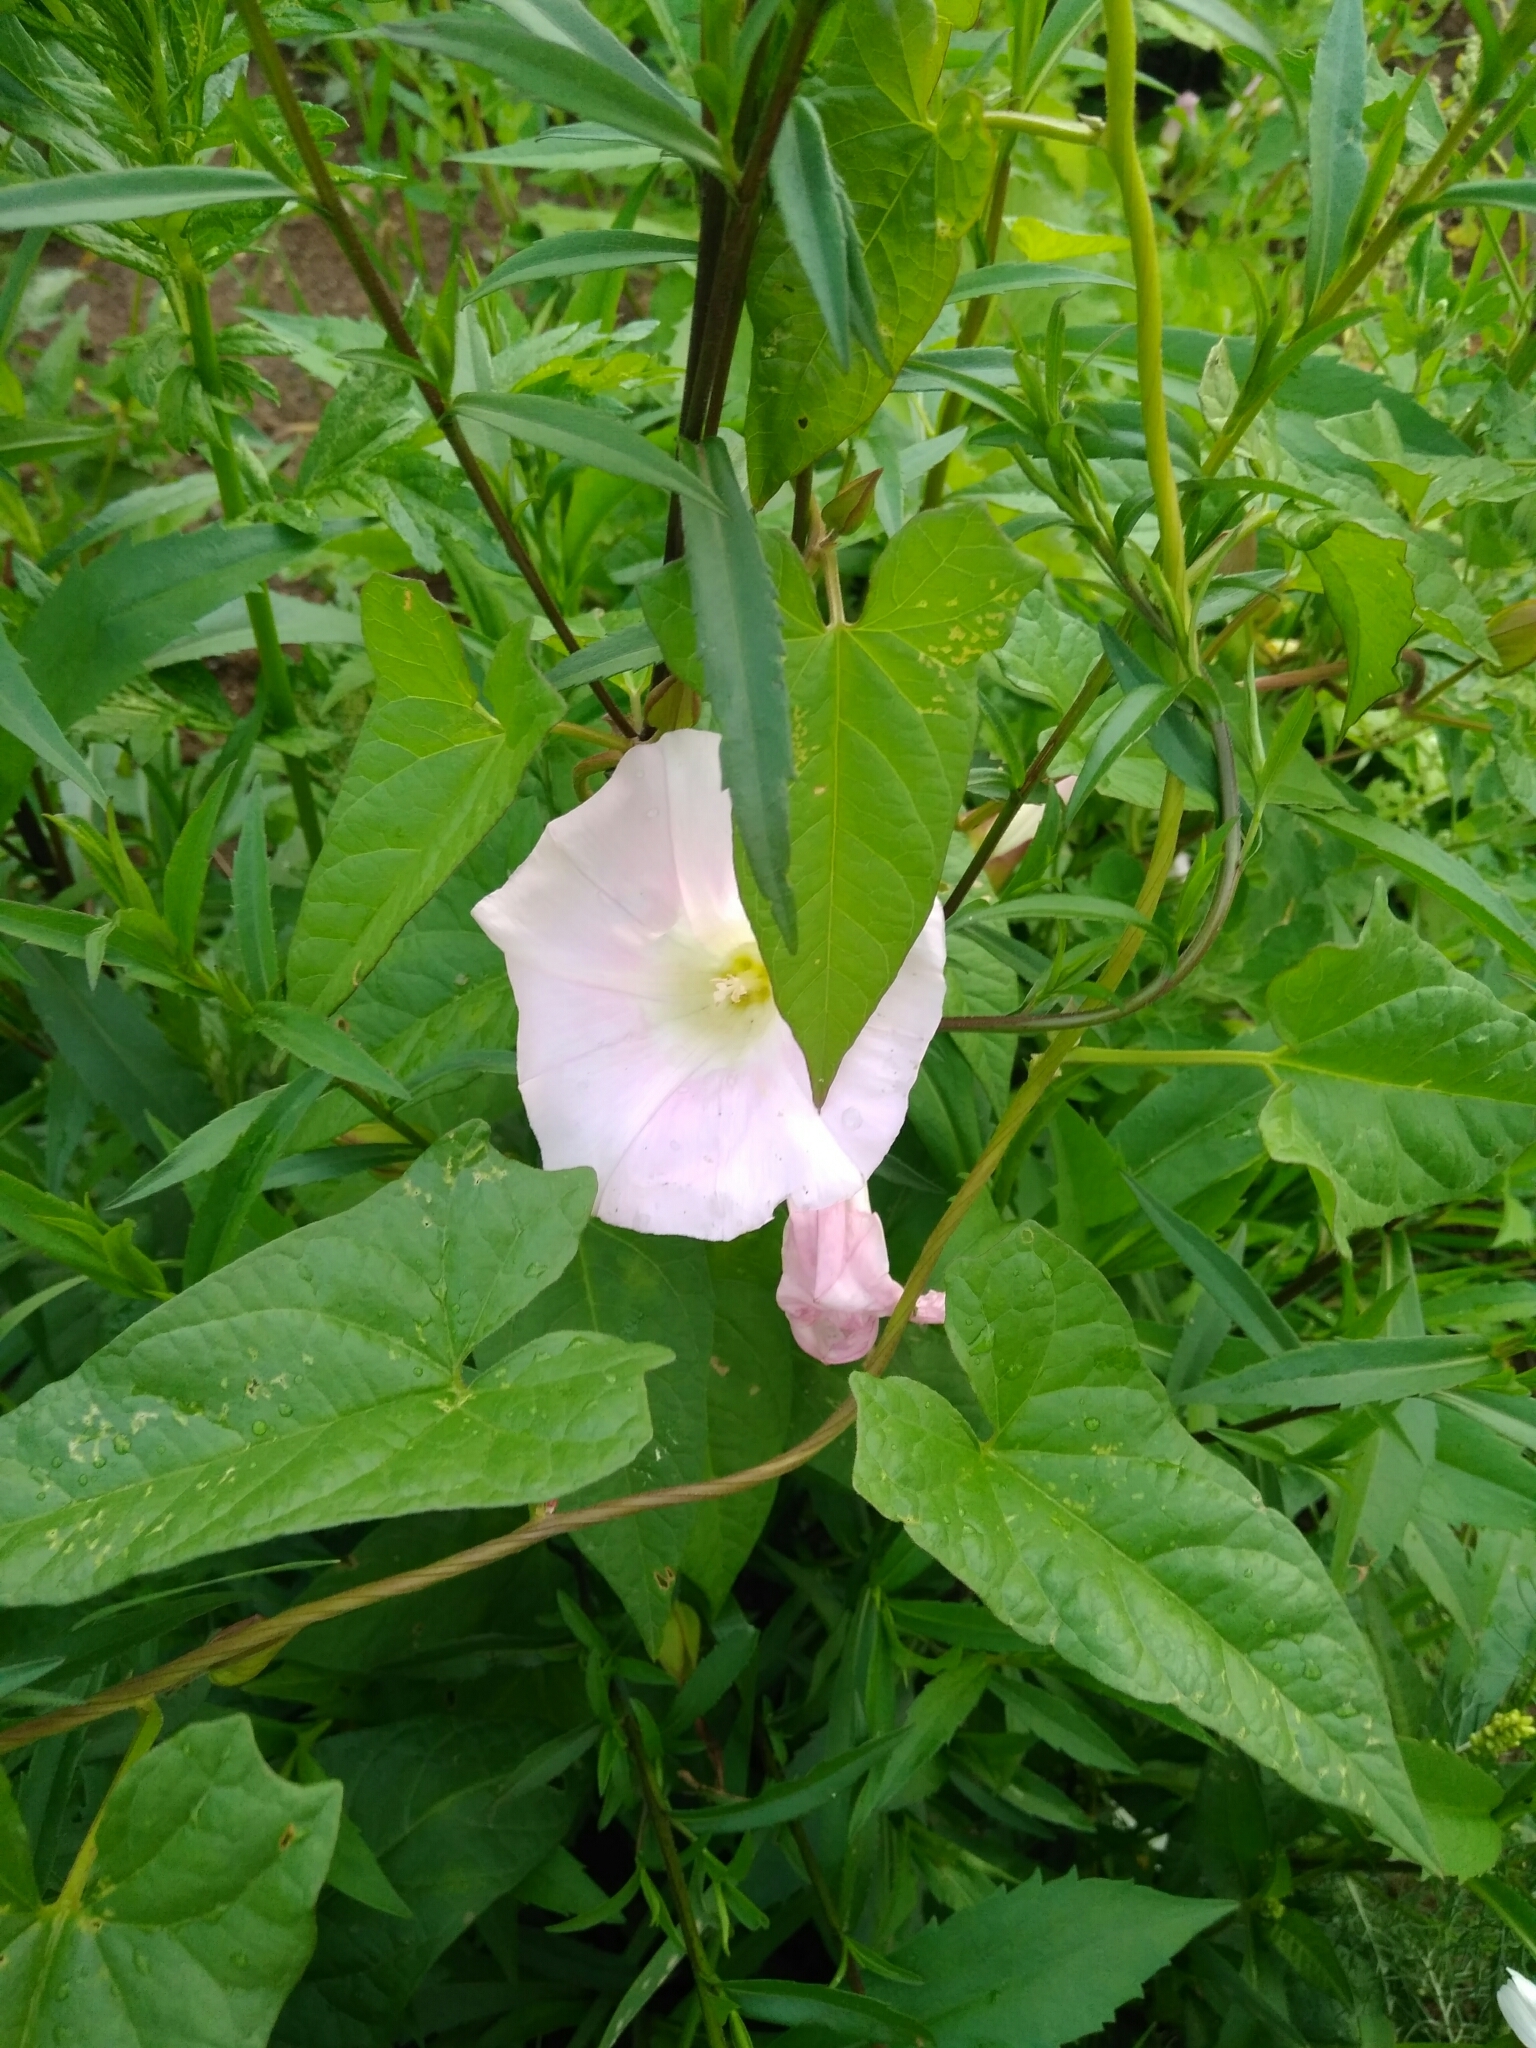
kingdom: Plantae
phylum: Tracheophyta
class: Magnoliopsida
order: Solanales
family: Convolvulaceae
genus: Calystegia
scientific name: Calystegia sepium
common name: Hedge bindweed
